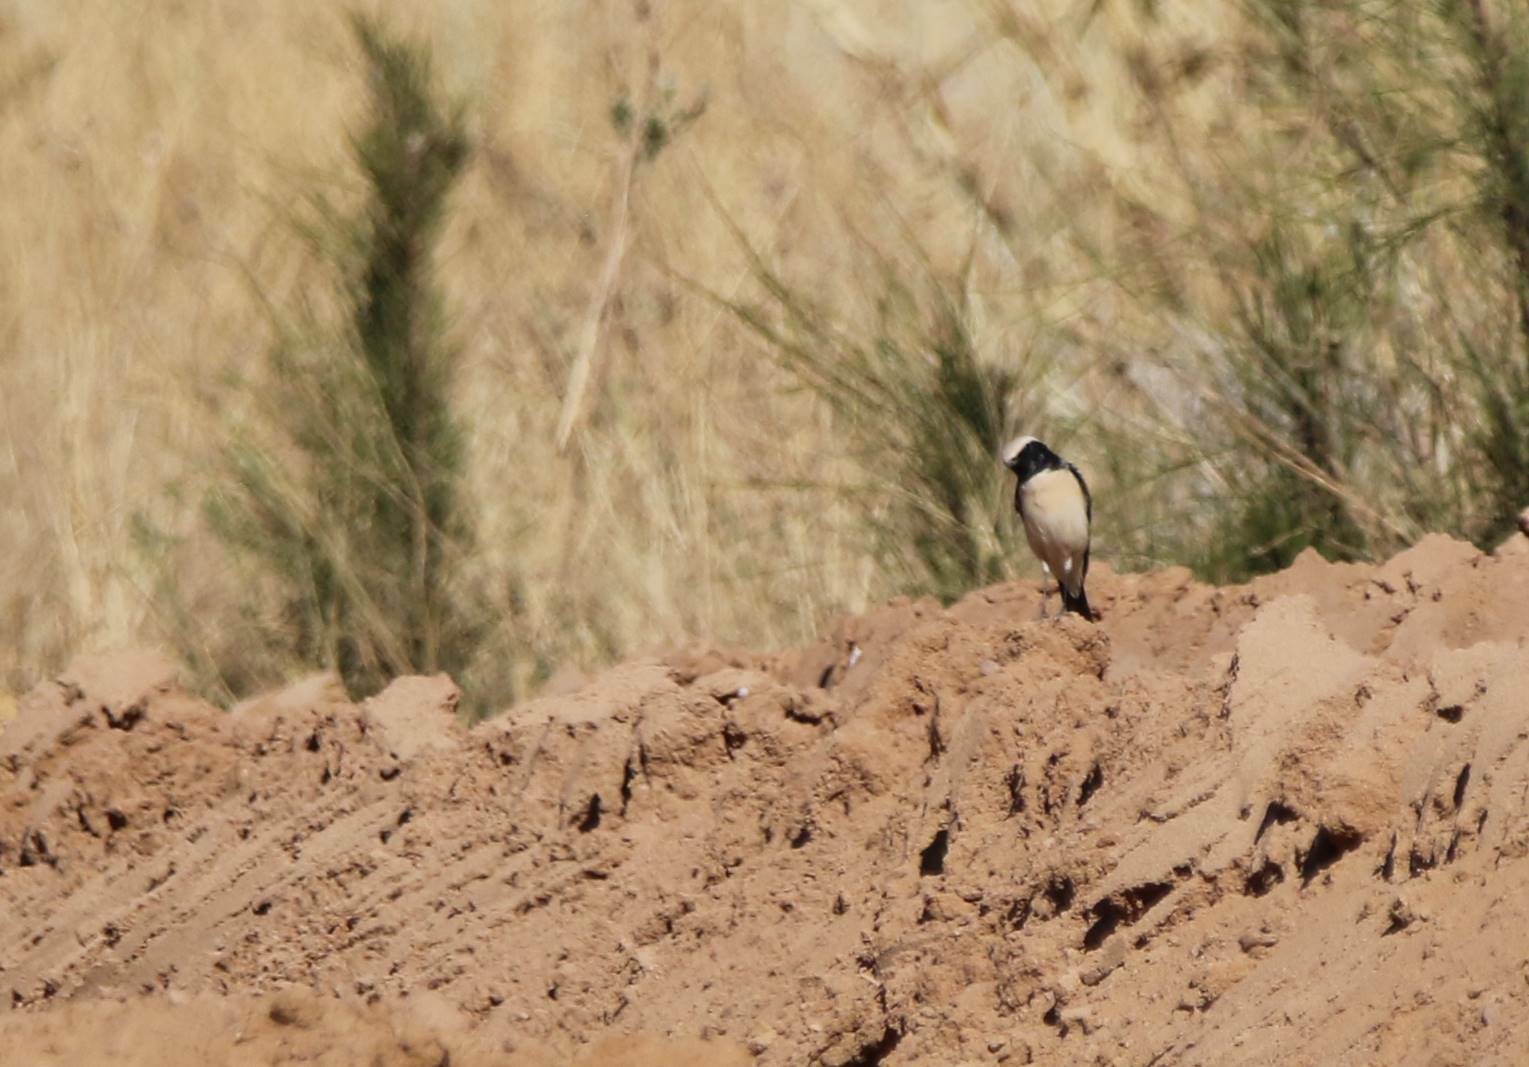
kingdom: Animalia
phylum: Chordata
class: Aves
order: Passeriformes
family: Muscicapidae
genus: Oenanthe
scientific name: Oenanthe deserti
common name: Desert wheatear
